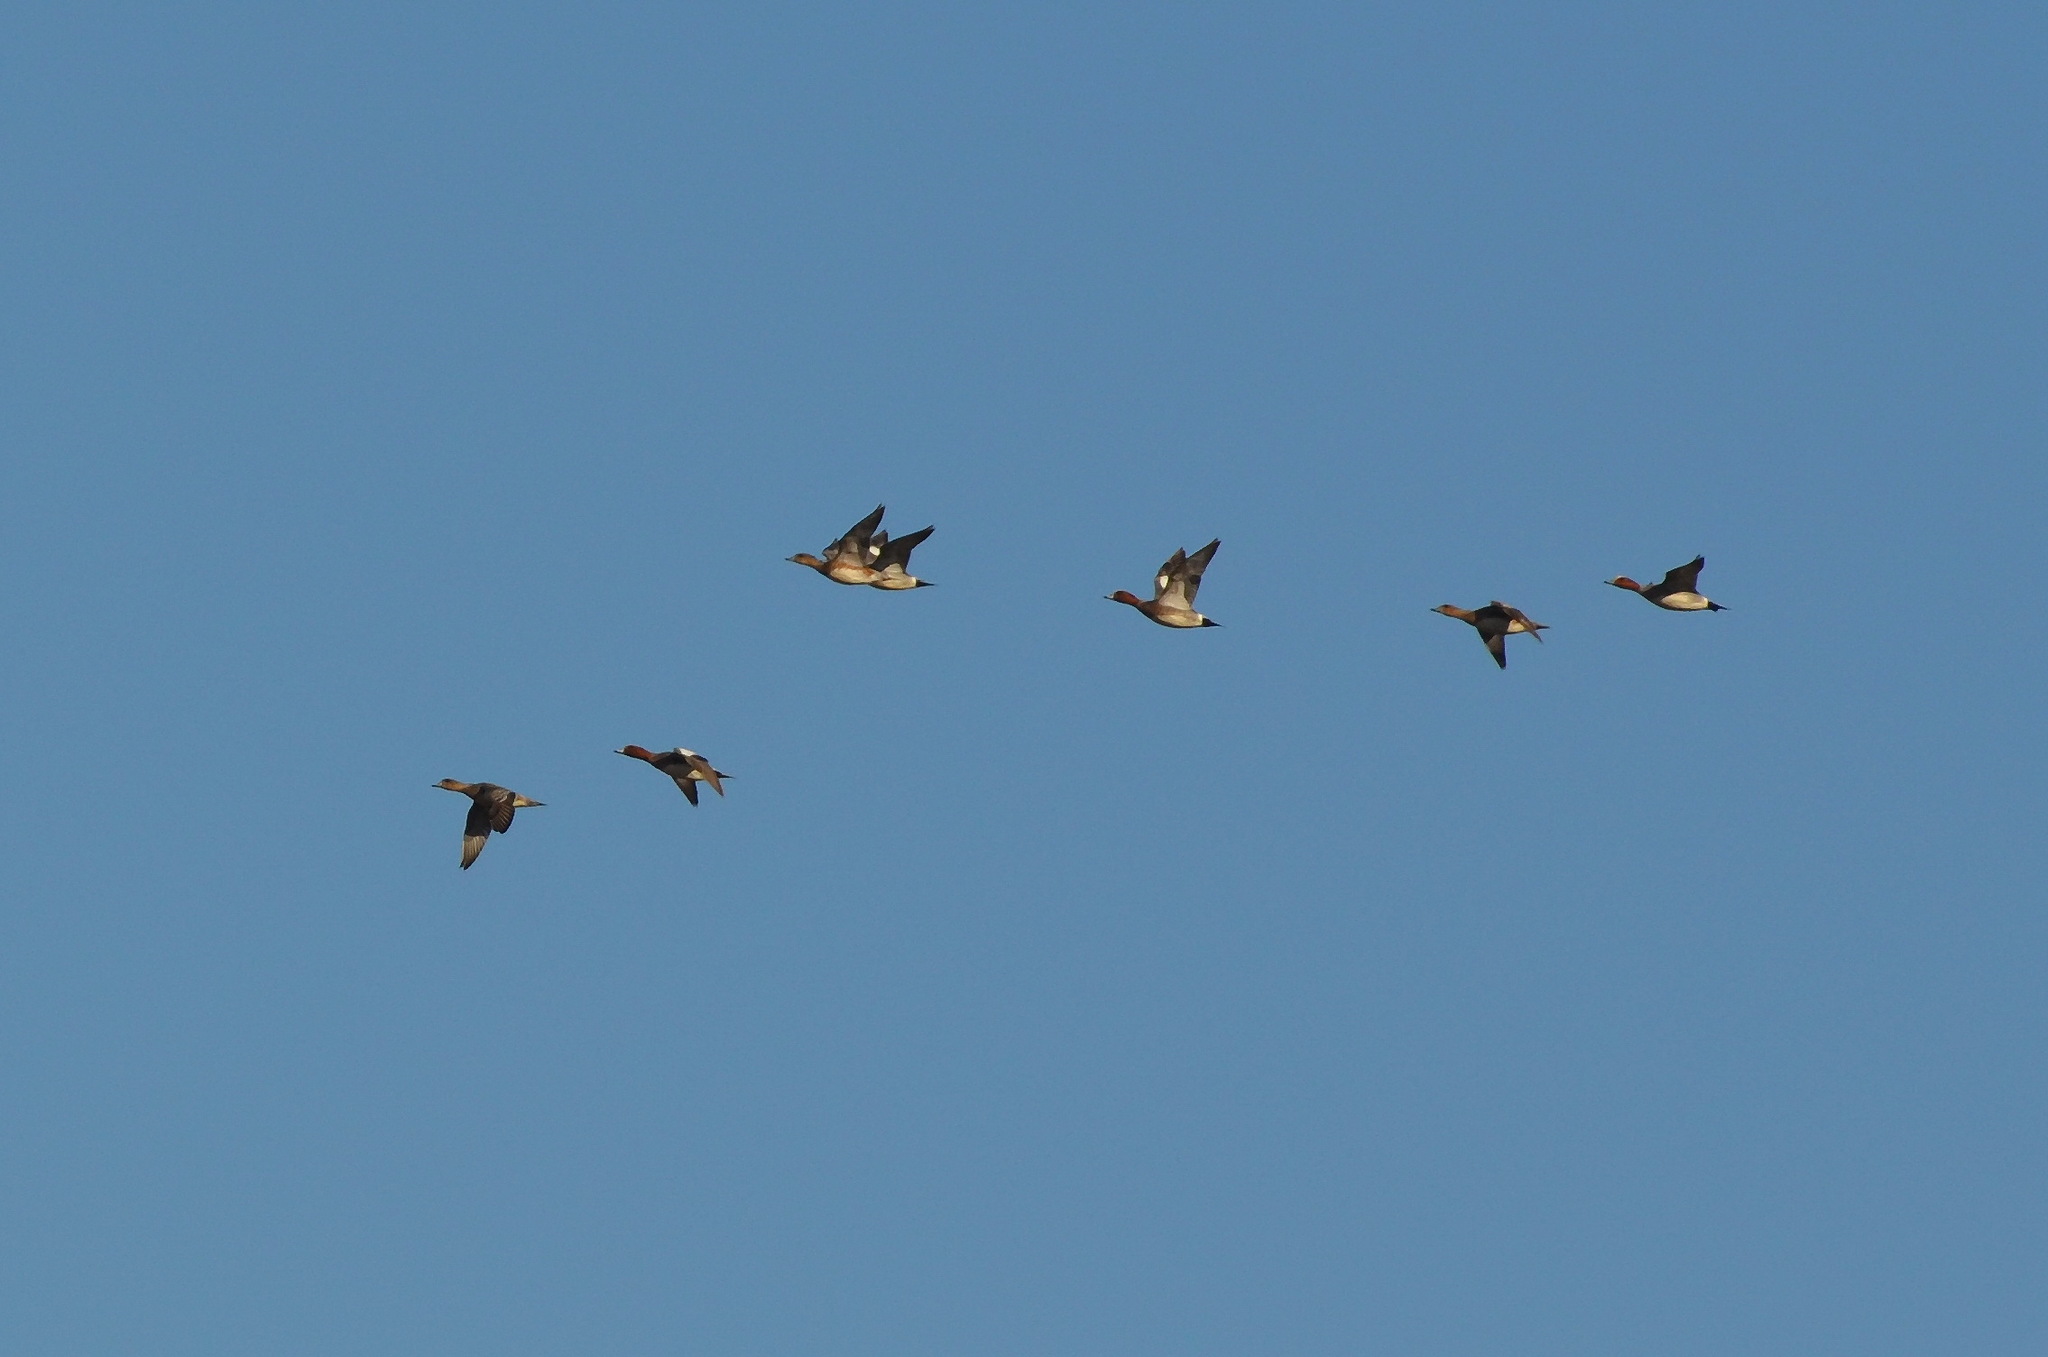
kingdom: Animalia
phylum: Chordata
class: Aves
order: Anseriformes
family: Anatidae
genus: Mareca
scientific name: Mareca penelope
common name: Eurasian wigeon
